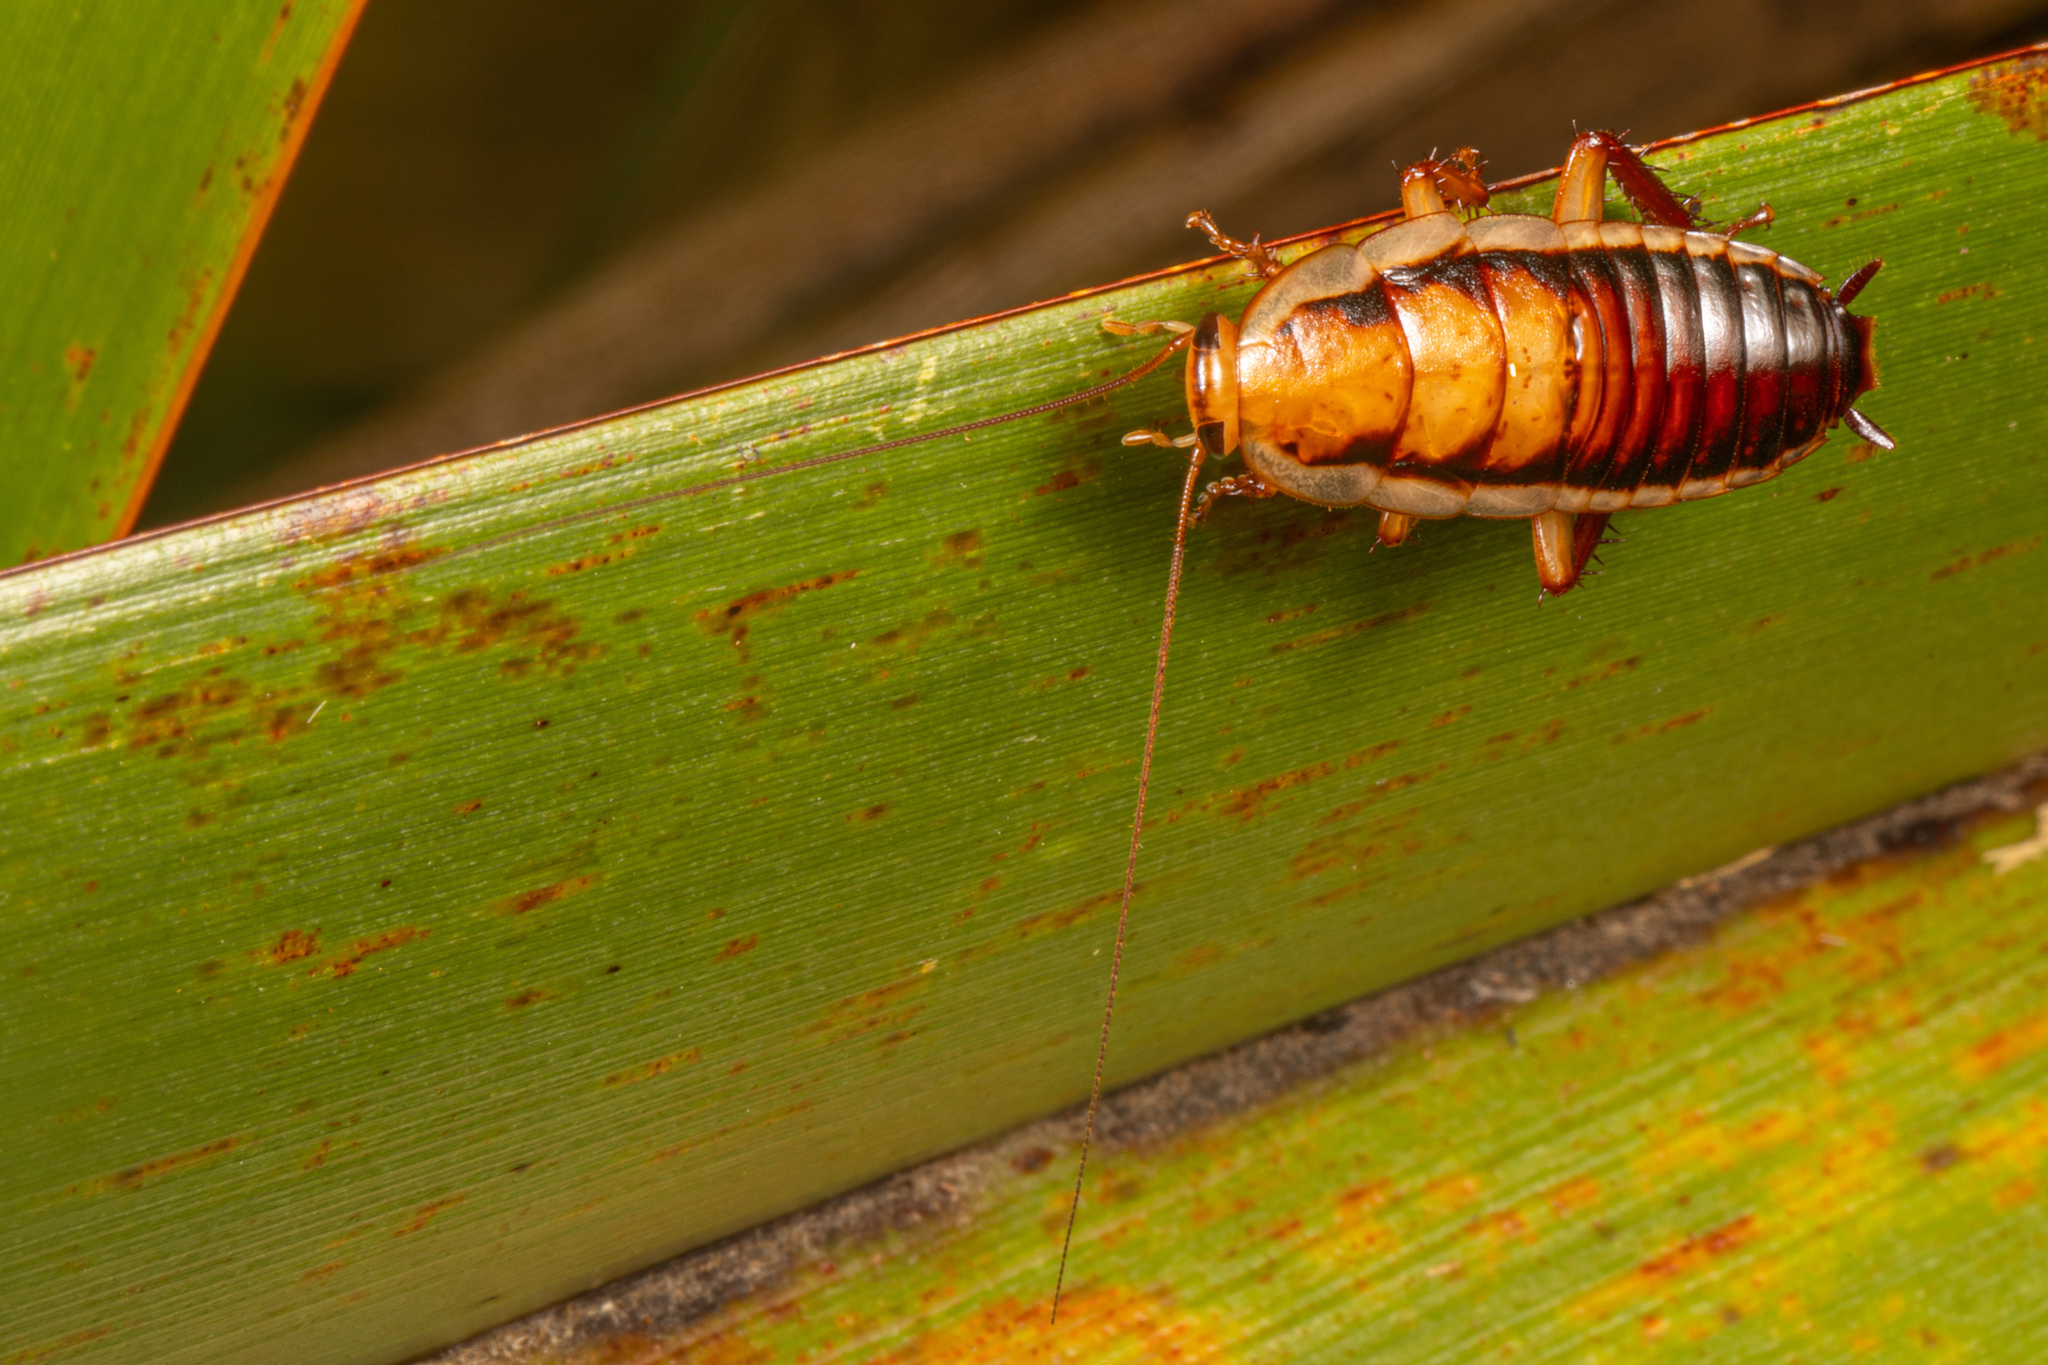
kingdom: Animalia
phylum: Arthropoda
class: Insecta
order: Blattodea
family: Blattidae
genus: Drymaplaneta
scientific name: Drymaplaneta heydeniana
